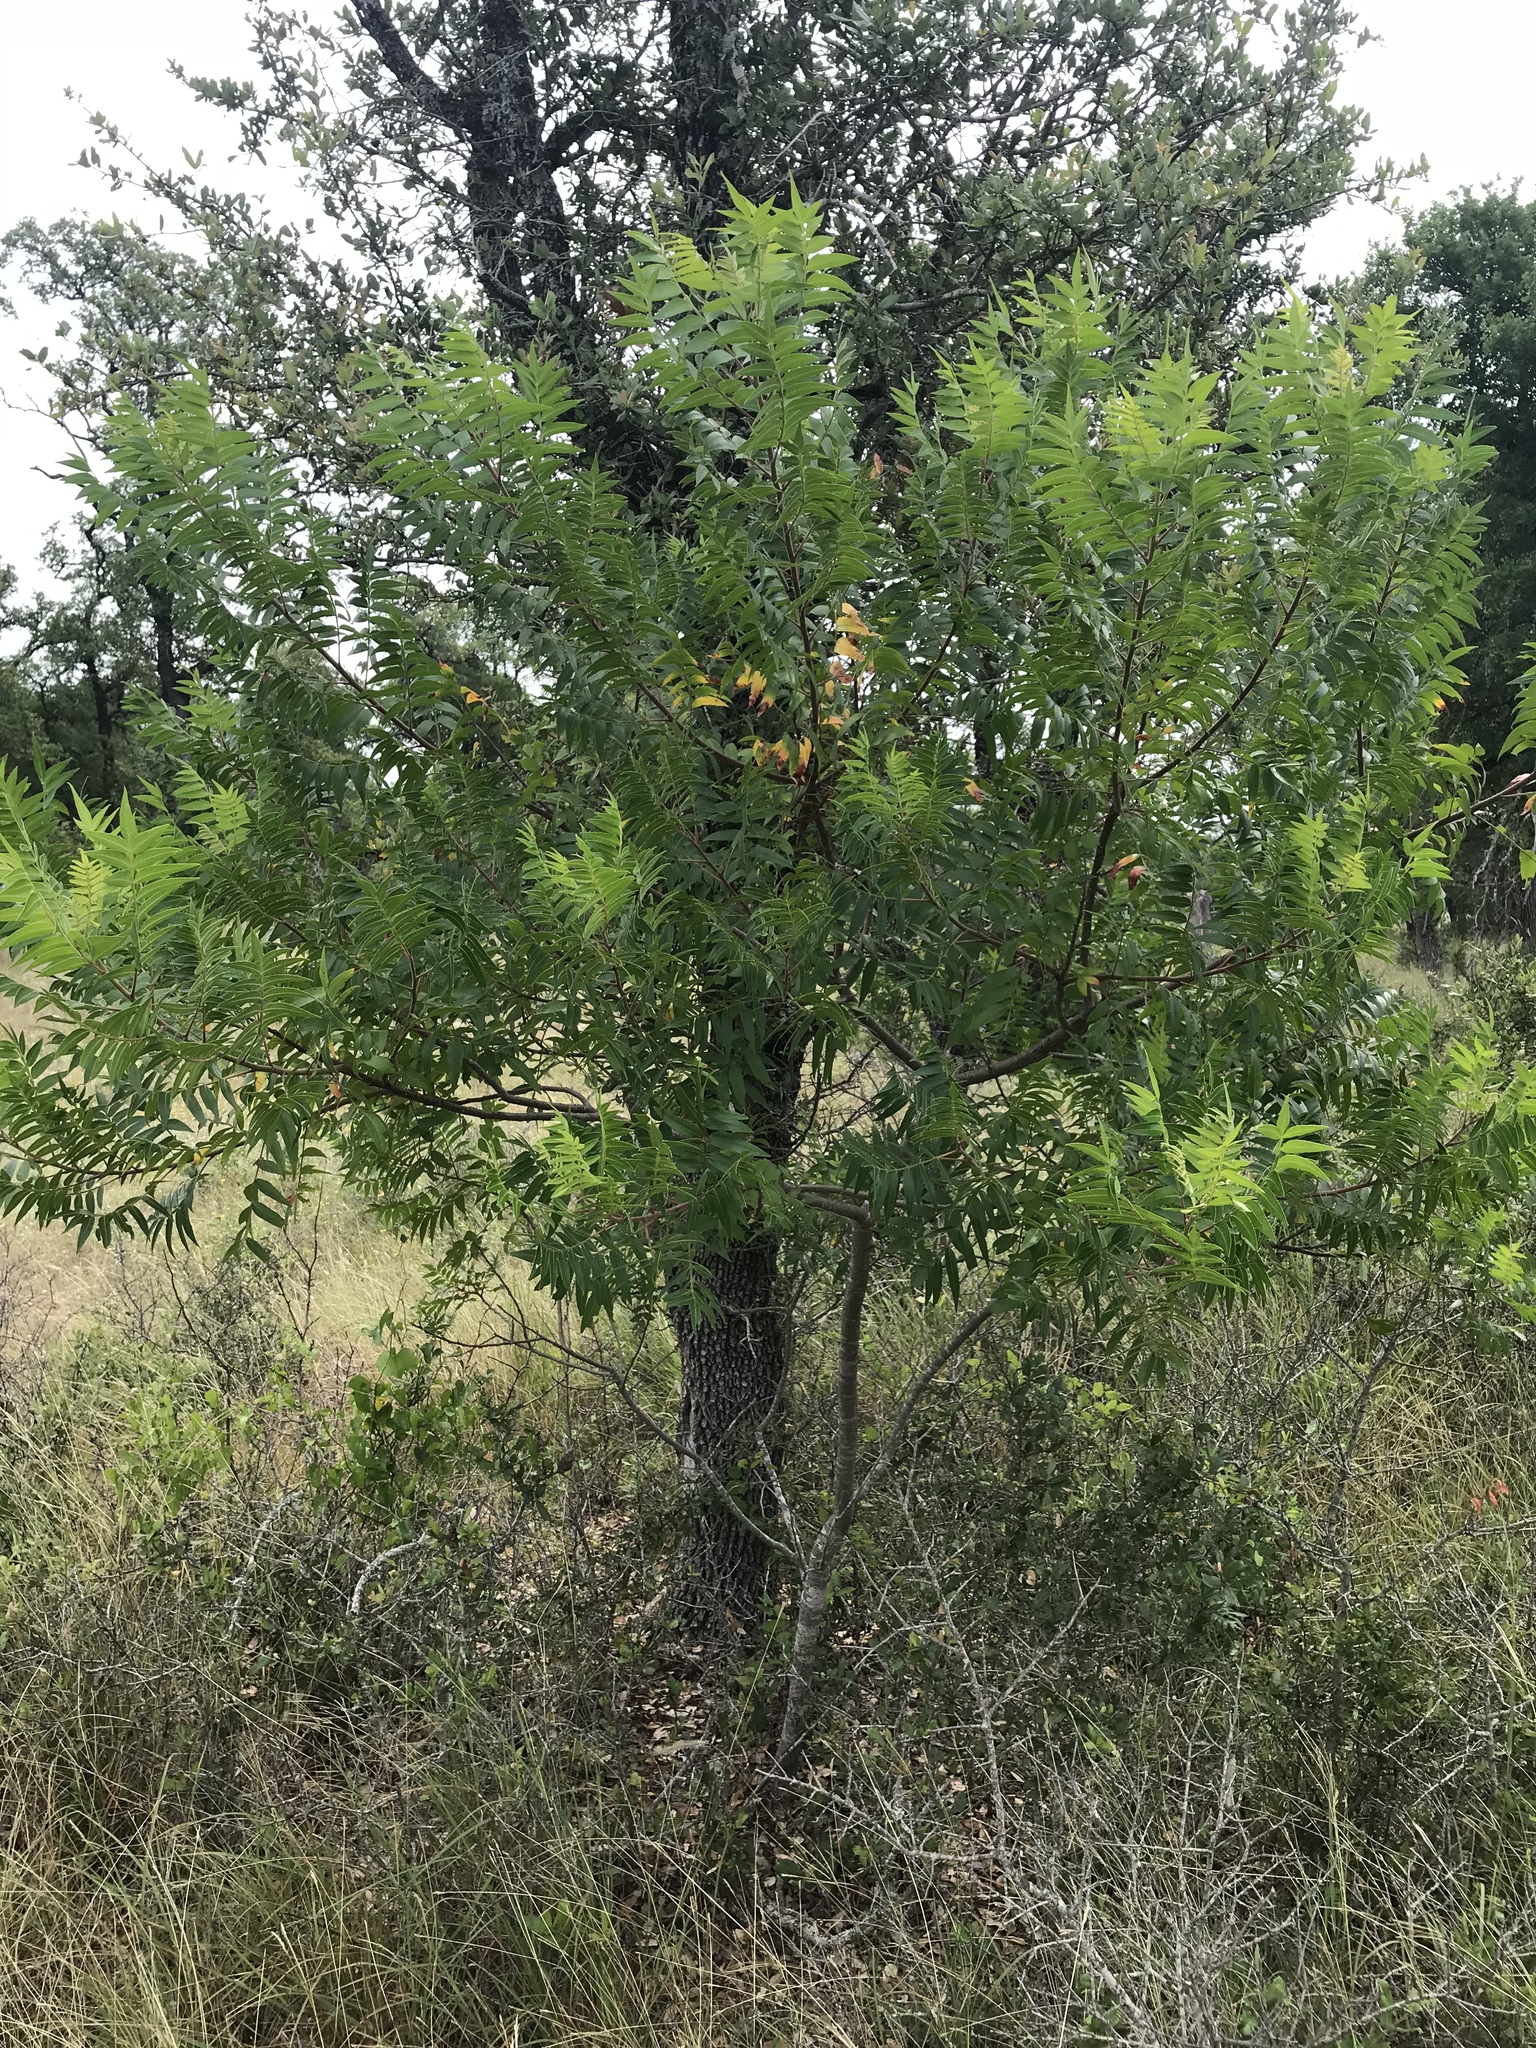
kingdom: Plantae
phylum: Tracheophyta
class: Magnoliopsida
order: Sapindales
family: Anacardiaceae
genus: Rhus
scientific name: Rhus lanceolata
